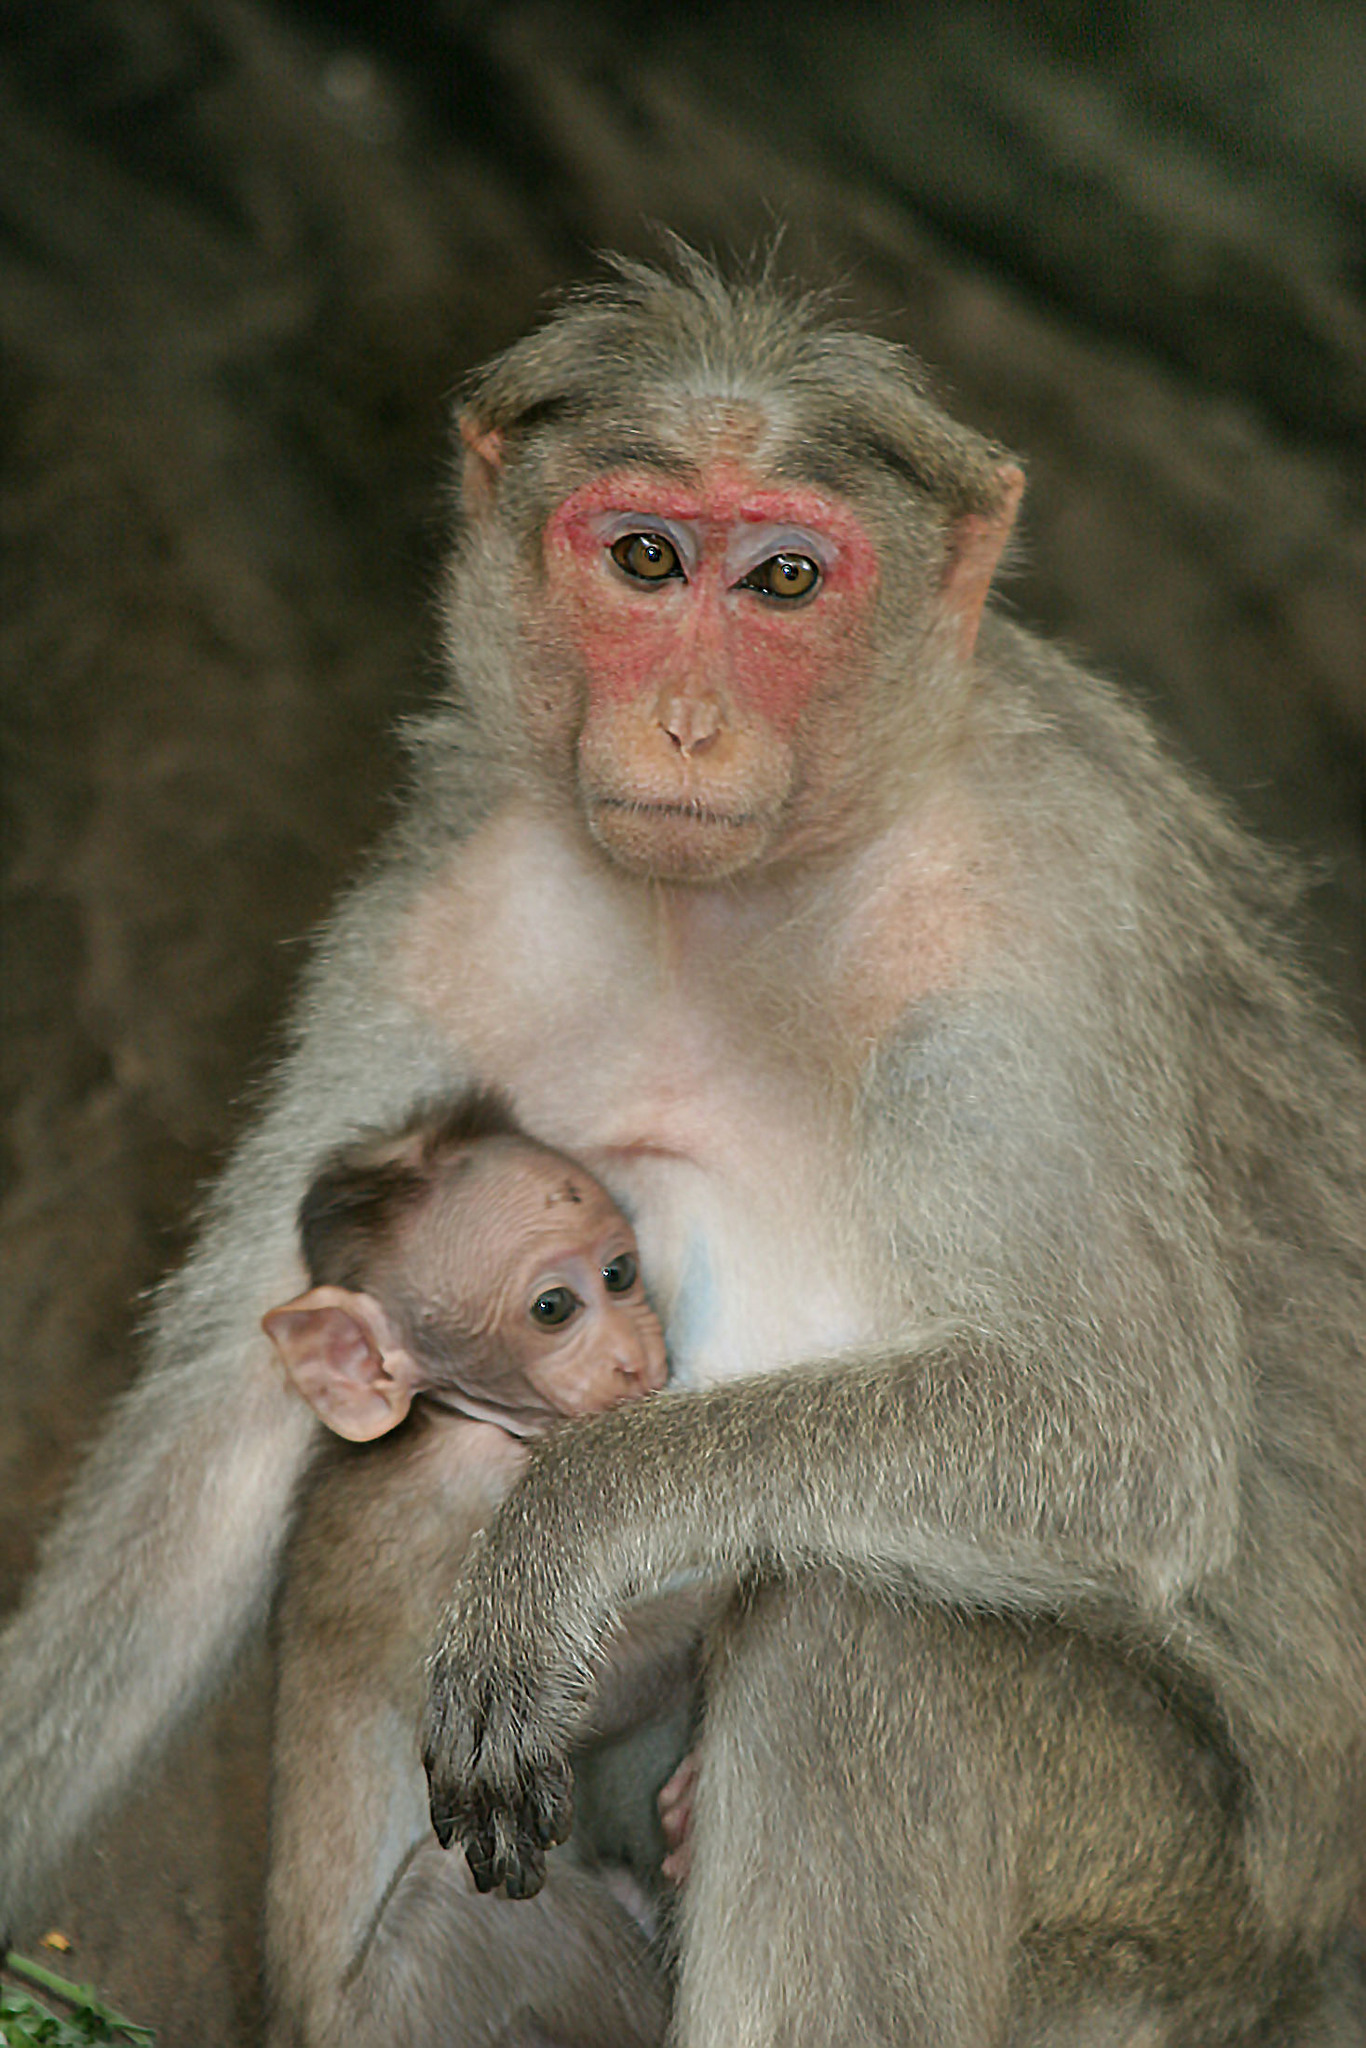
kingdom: Animalia
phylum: Chordata
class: Mammalia
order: Primates
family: Cercopithecidae
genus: Macaca
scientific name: Macaca radiata
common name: Bonnet macaque
